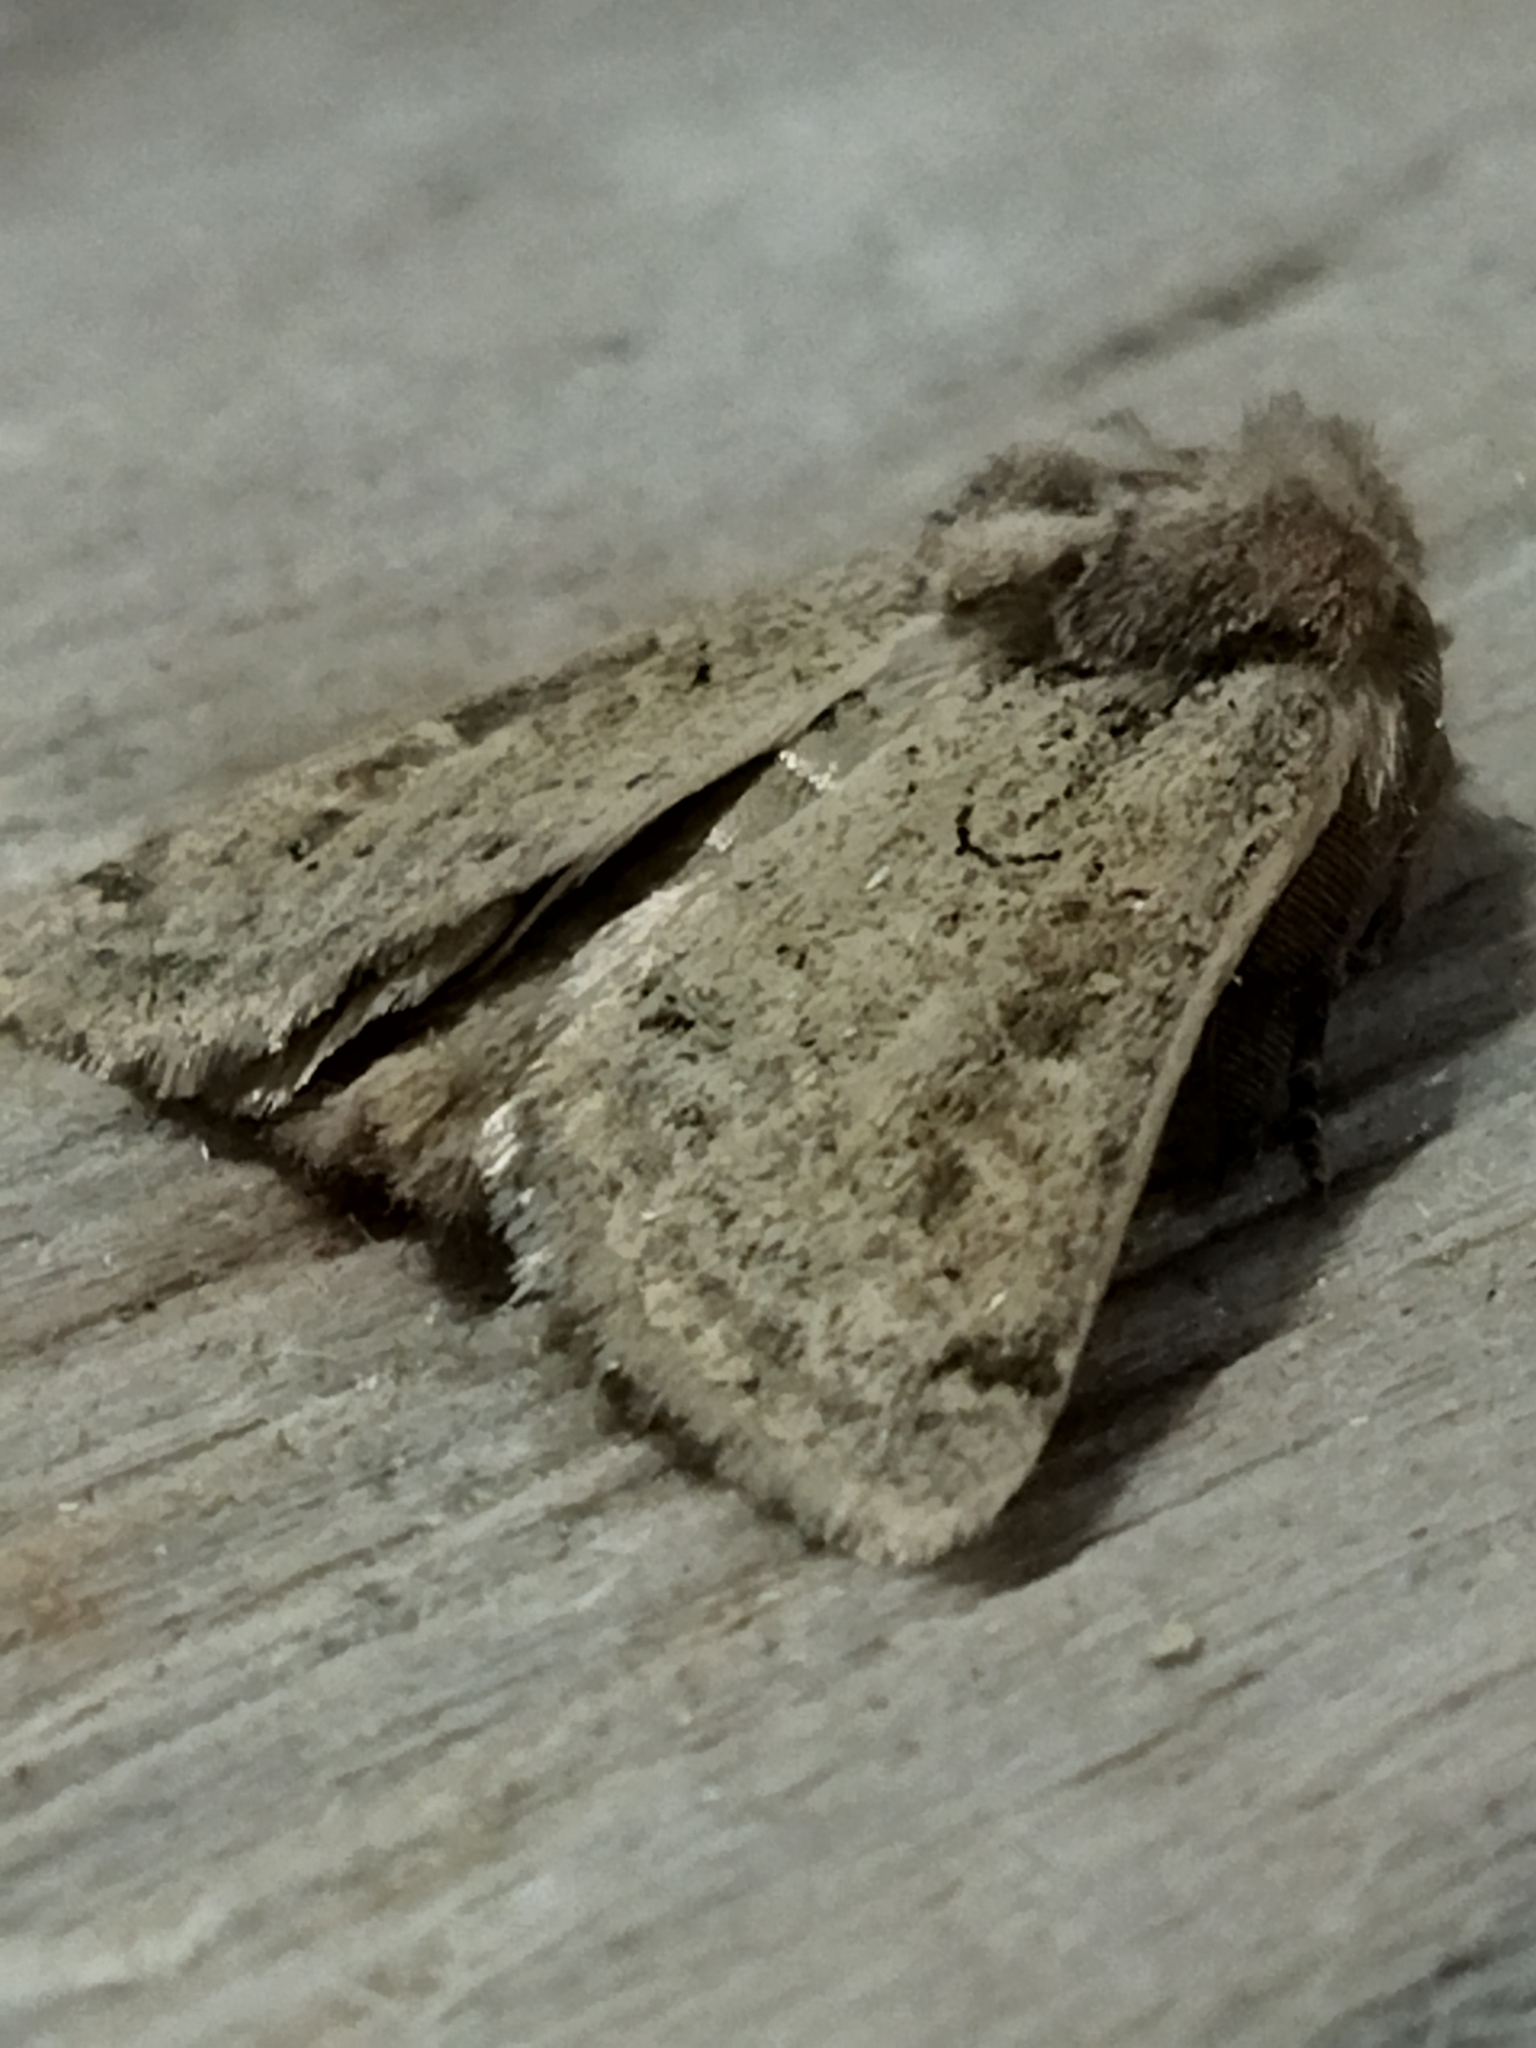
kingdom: Animalia
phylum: Arthropoda
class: Insecta
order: Lepidoptera
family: Noctuidae
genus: Episema
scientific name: Episema lederi
